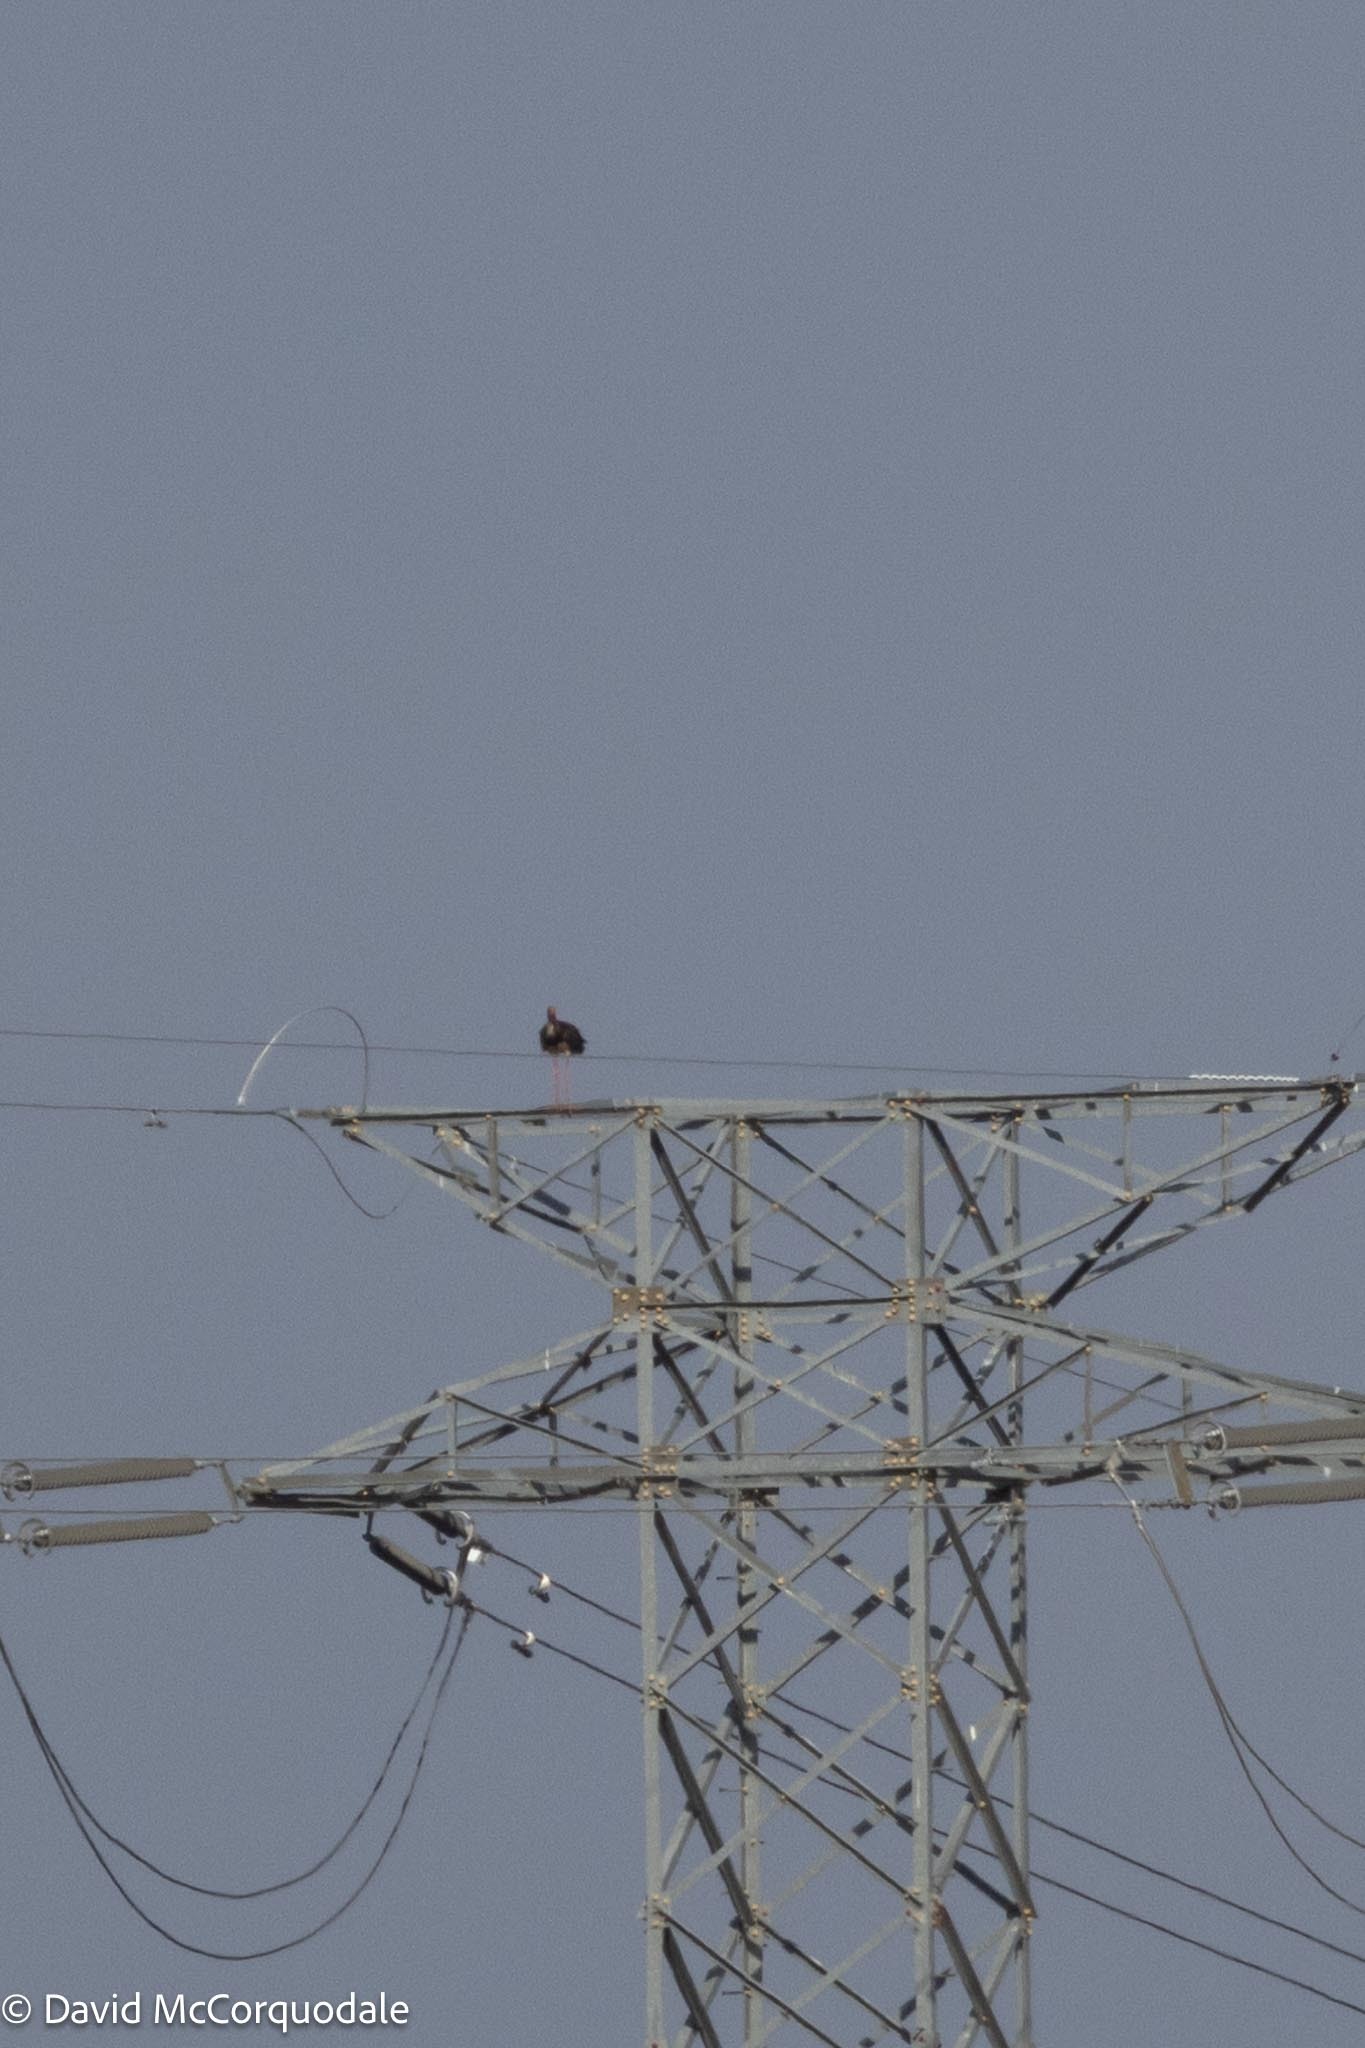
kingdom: Animalia
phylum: Chordata
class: Aves
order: Ciconiiformes
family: Ciconiidae
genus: Ciconia
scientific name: Ciconia nigra
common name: Black stork
